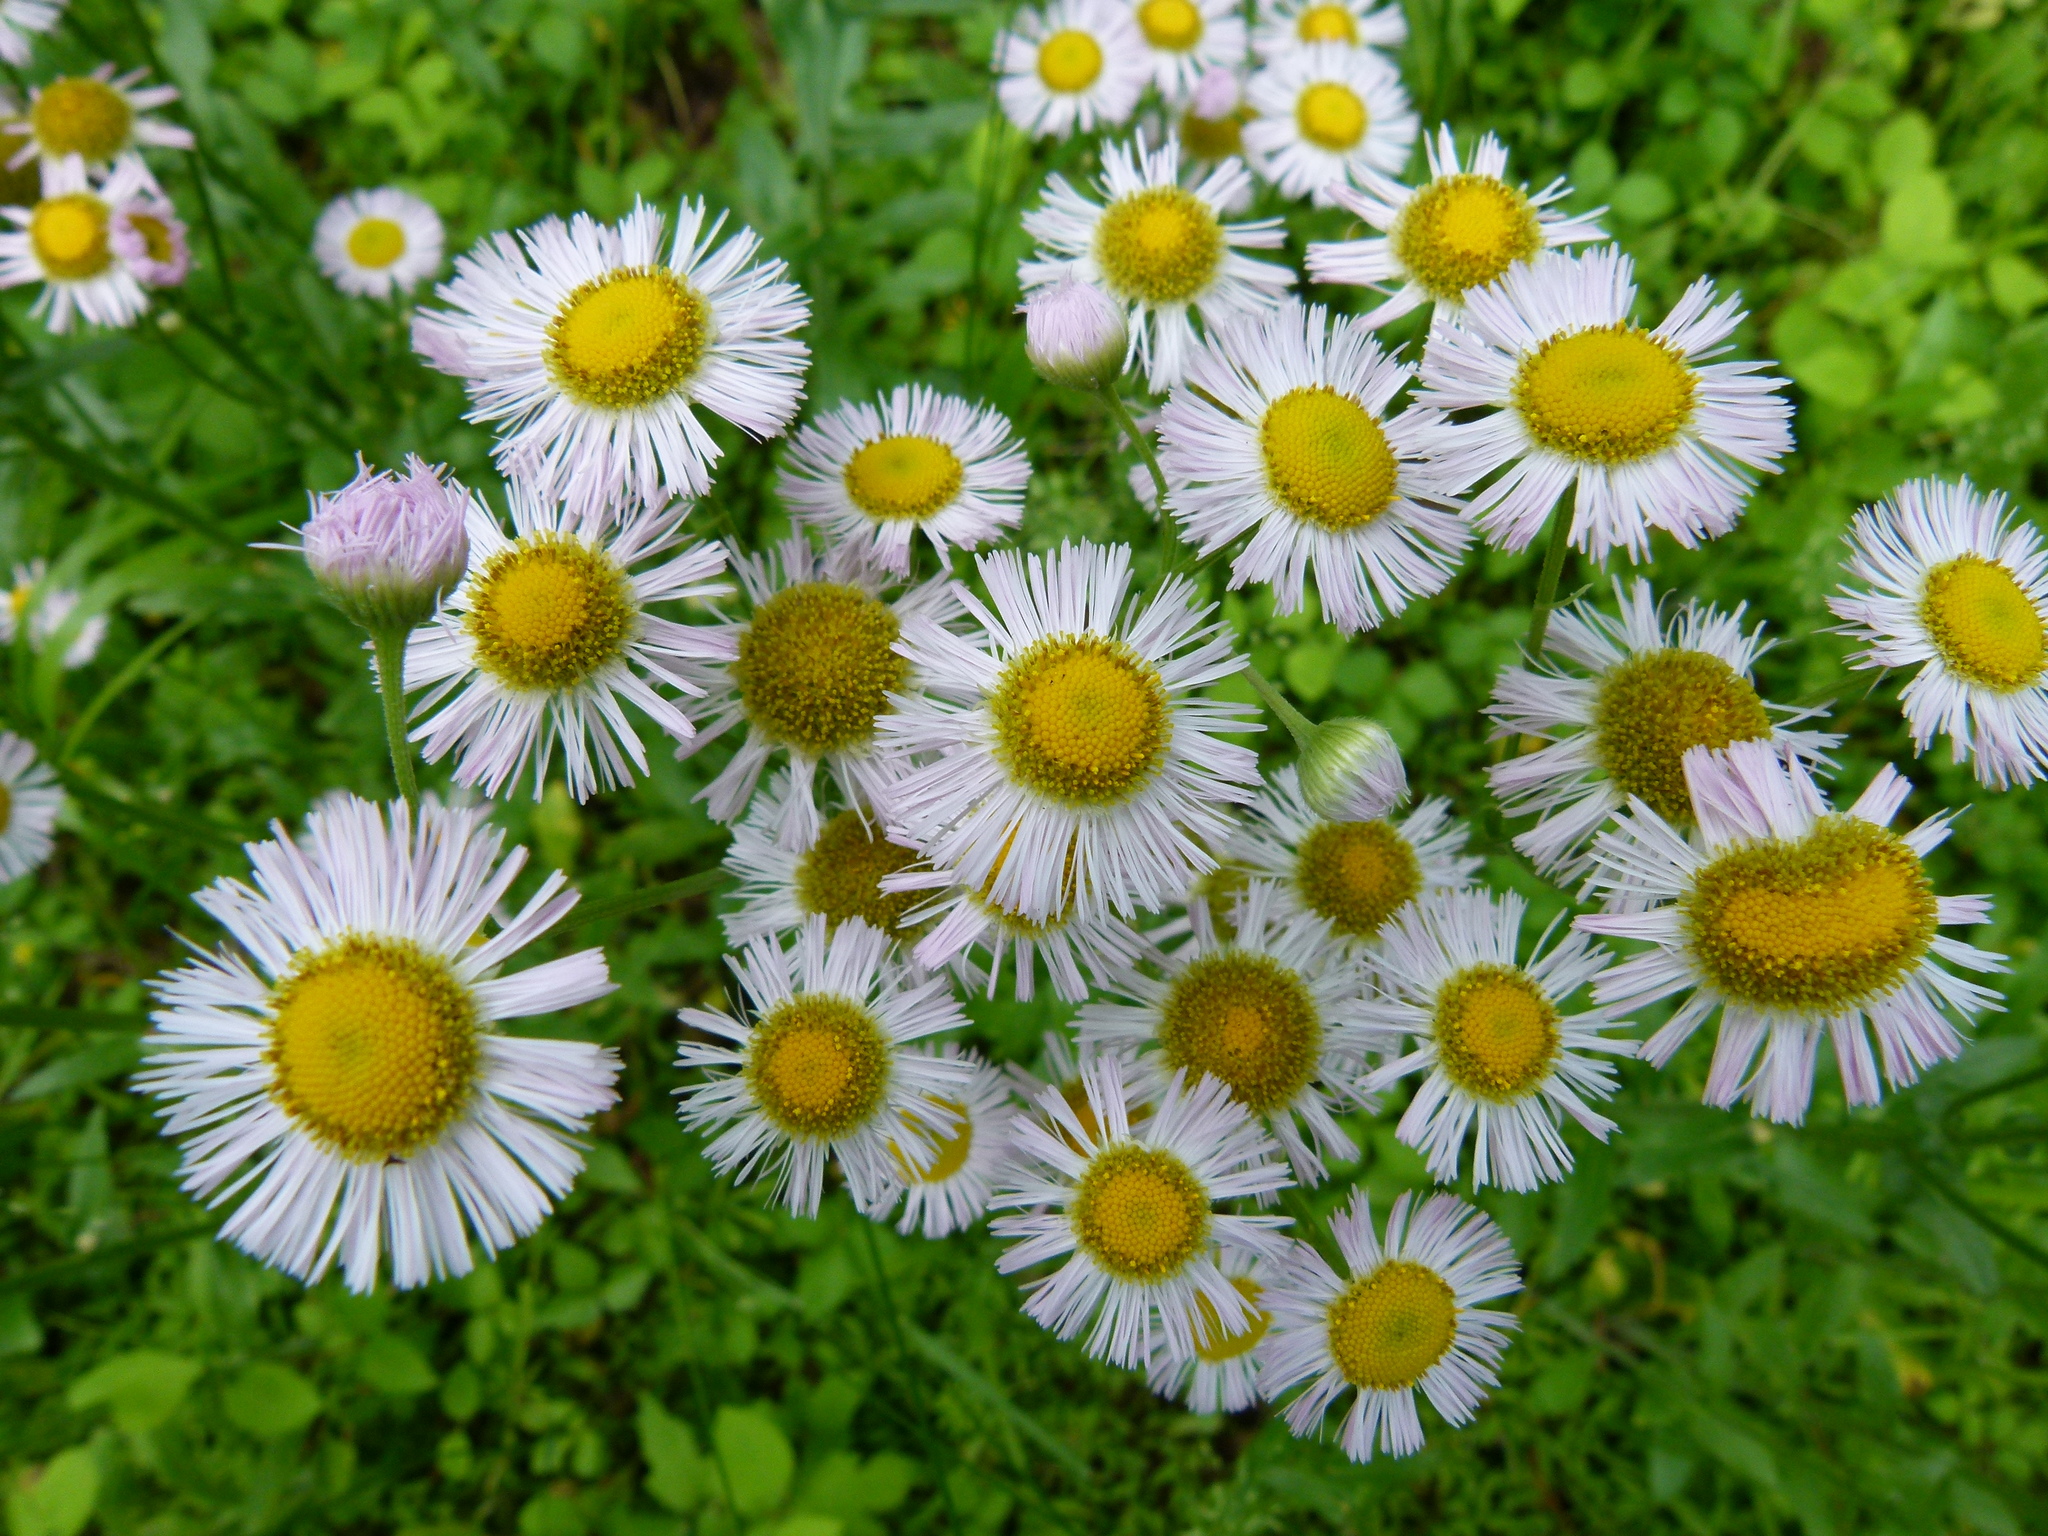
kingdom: Plantae
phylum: Tracheophyta
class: Magnoliopsida
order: Asterales
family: Asteraceae
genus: Erigeron
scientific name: Erigeron philadelphicus
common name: Robin's-plantain
